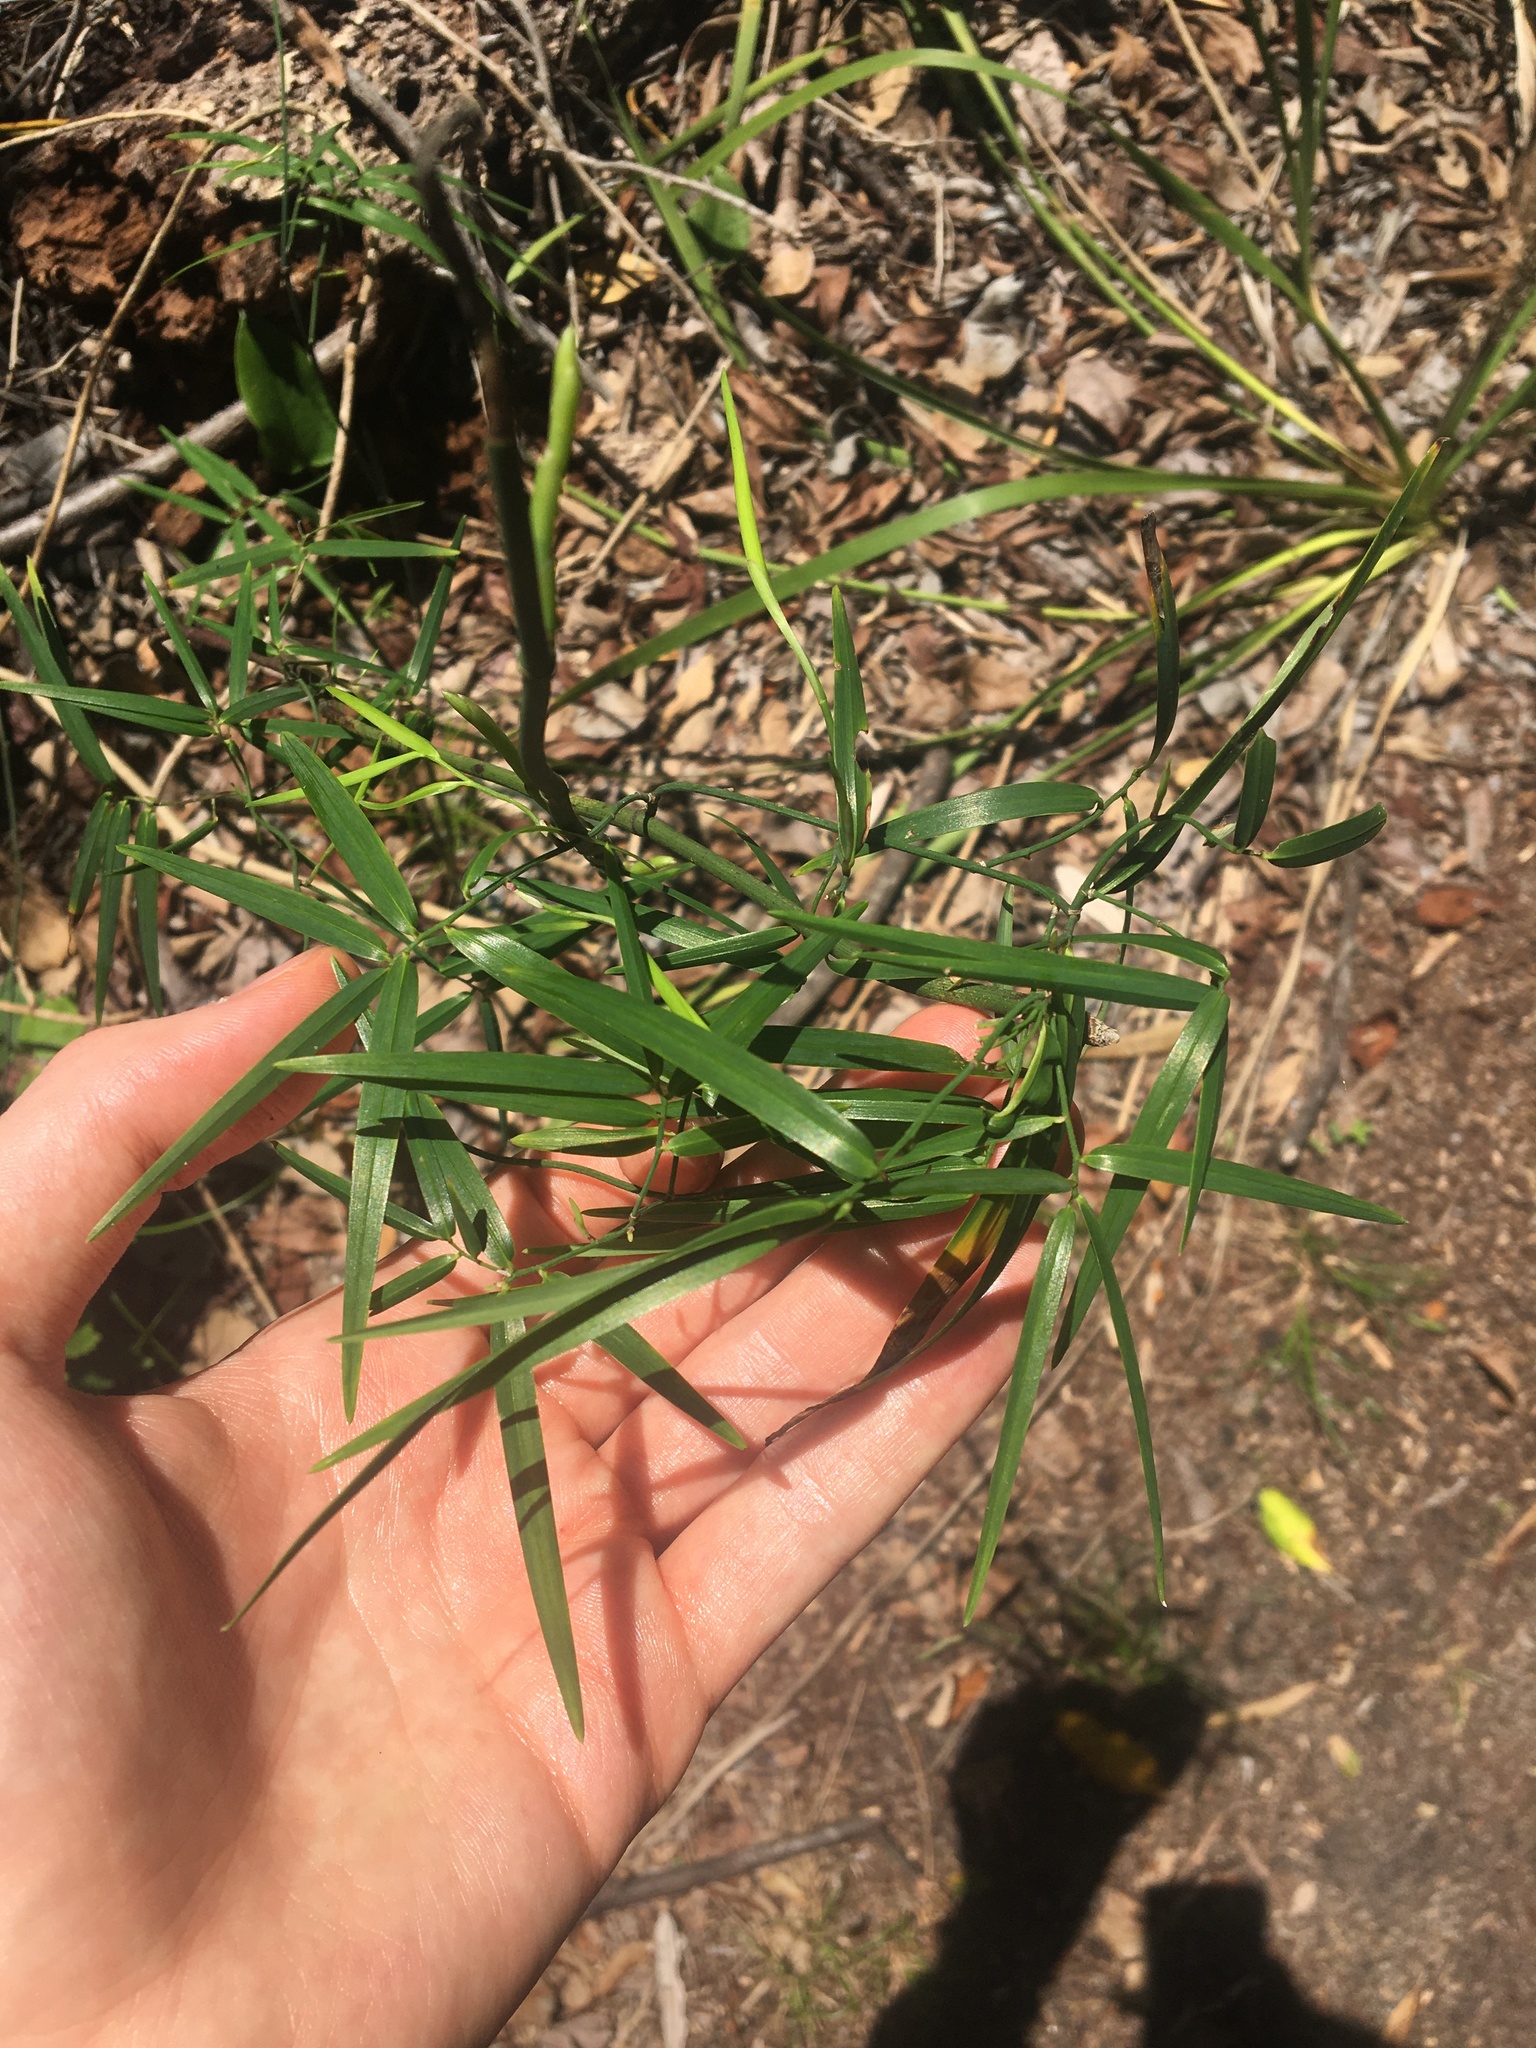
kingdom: Plantae
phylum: Tracheophyta
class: Liliopsida
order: Asparagales
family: Asphodelaceae
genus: Geitonoplesium
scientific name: Geitonoplesium cymosum
